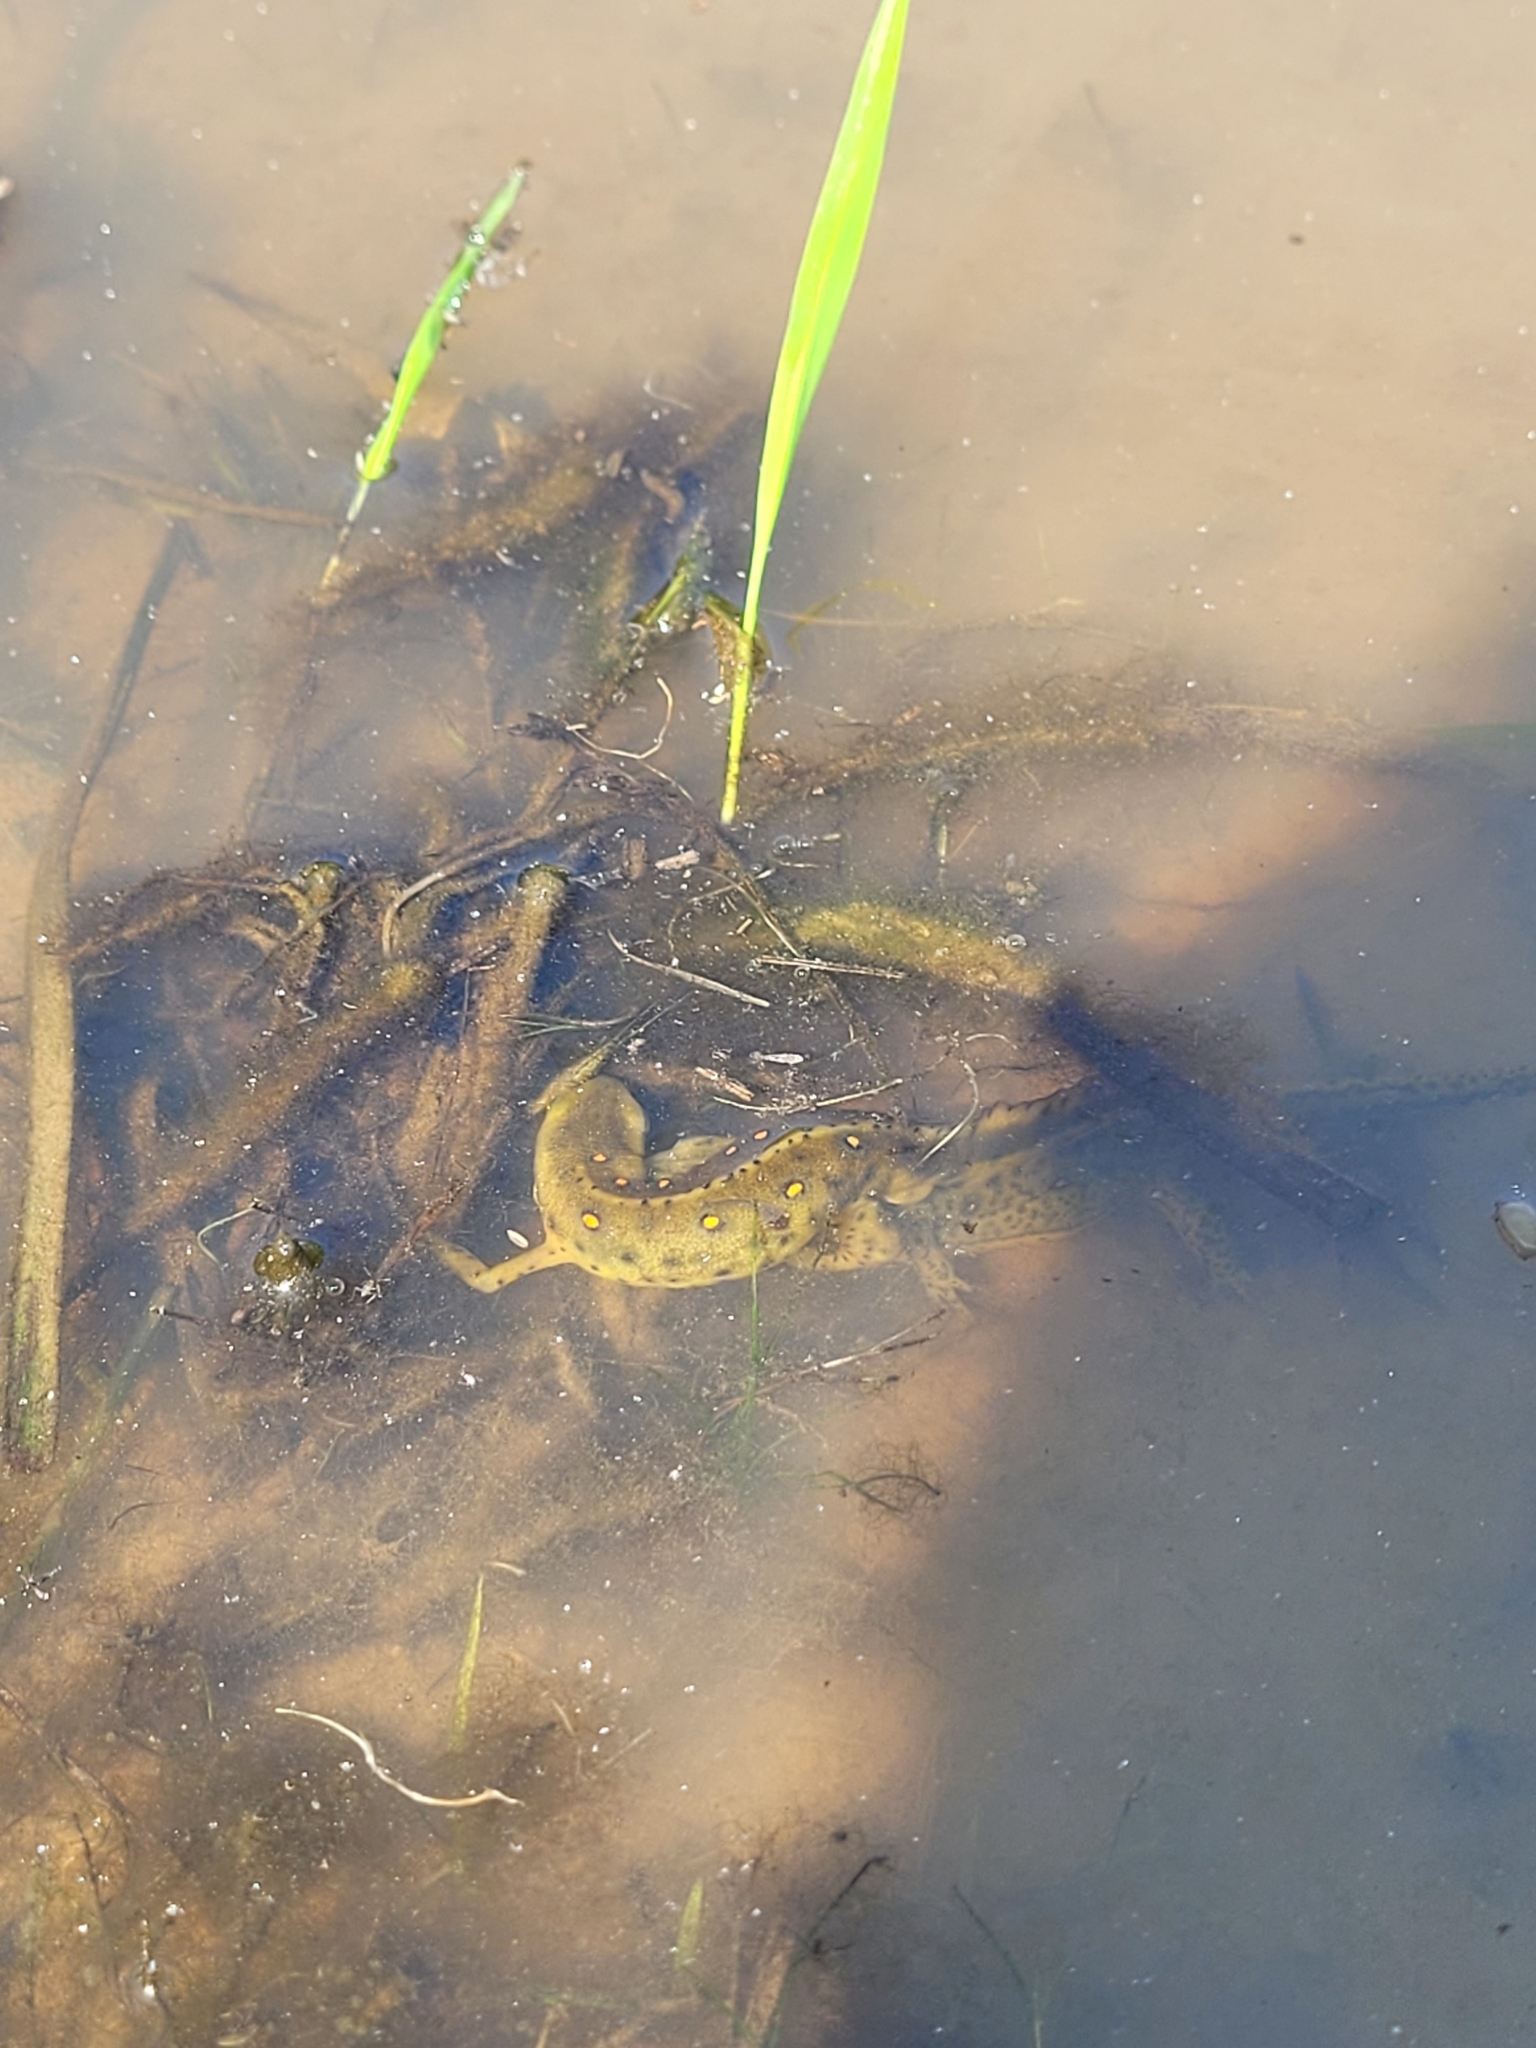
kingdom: Animalia
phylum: Chordata
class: Amphibia
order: Caudata
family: Salamandridae
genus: Notophthalmus
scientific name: Notophthalmus viridescens
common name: Eastern newt
